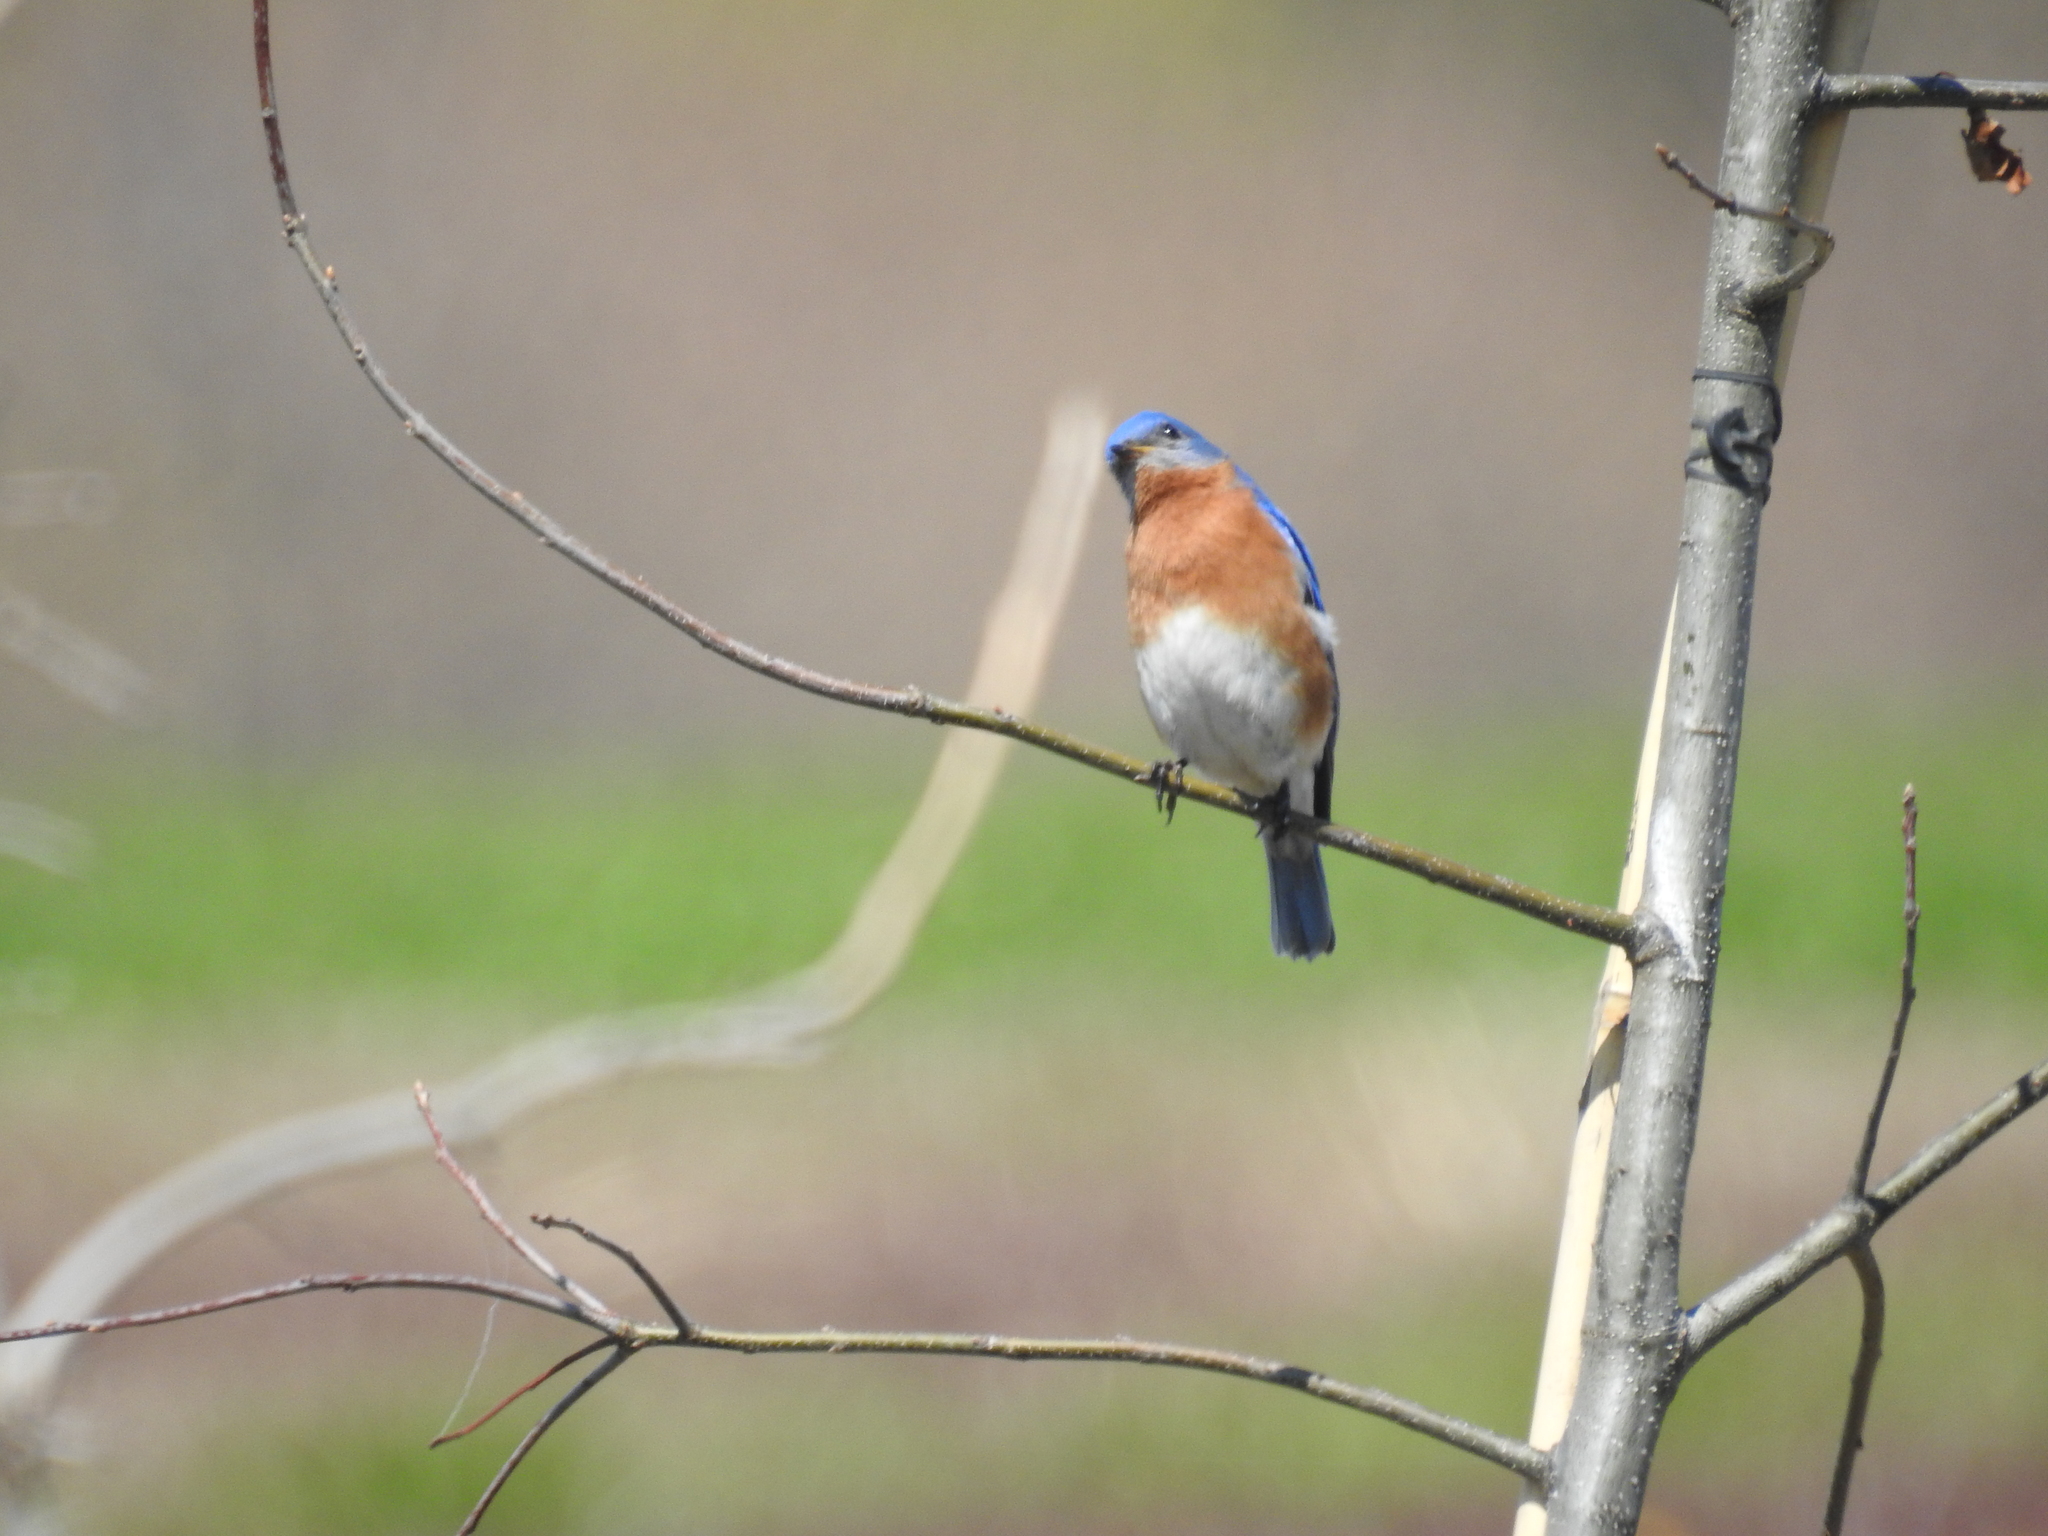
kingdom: Animalia
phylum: Chordata
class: Aves
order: Passeriformes
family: Turdidae
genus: Sialia
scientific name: Sialia sialis
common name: Eastern bluebird
